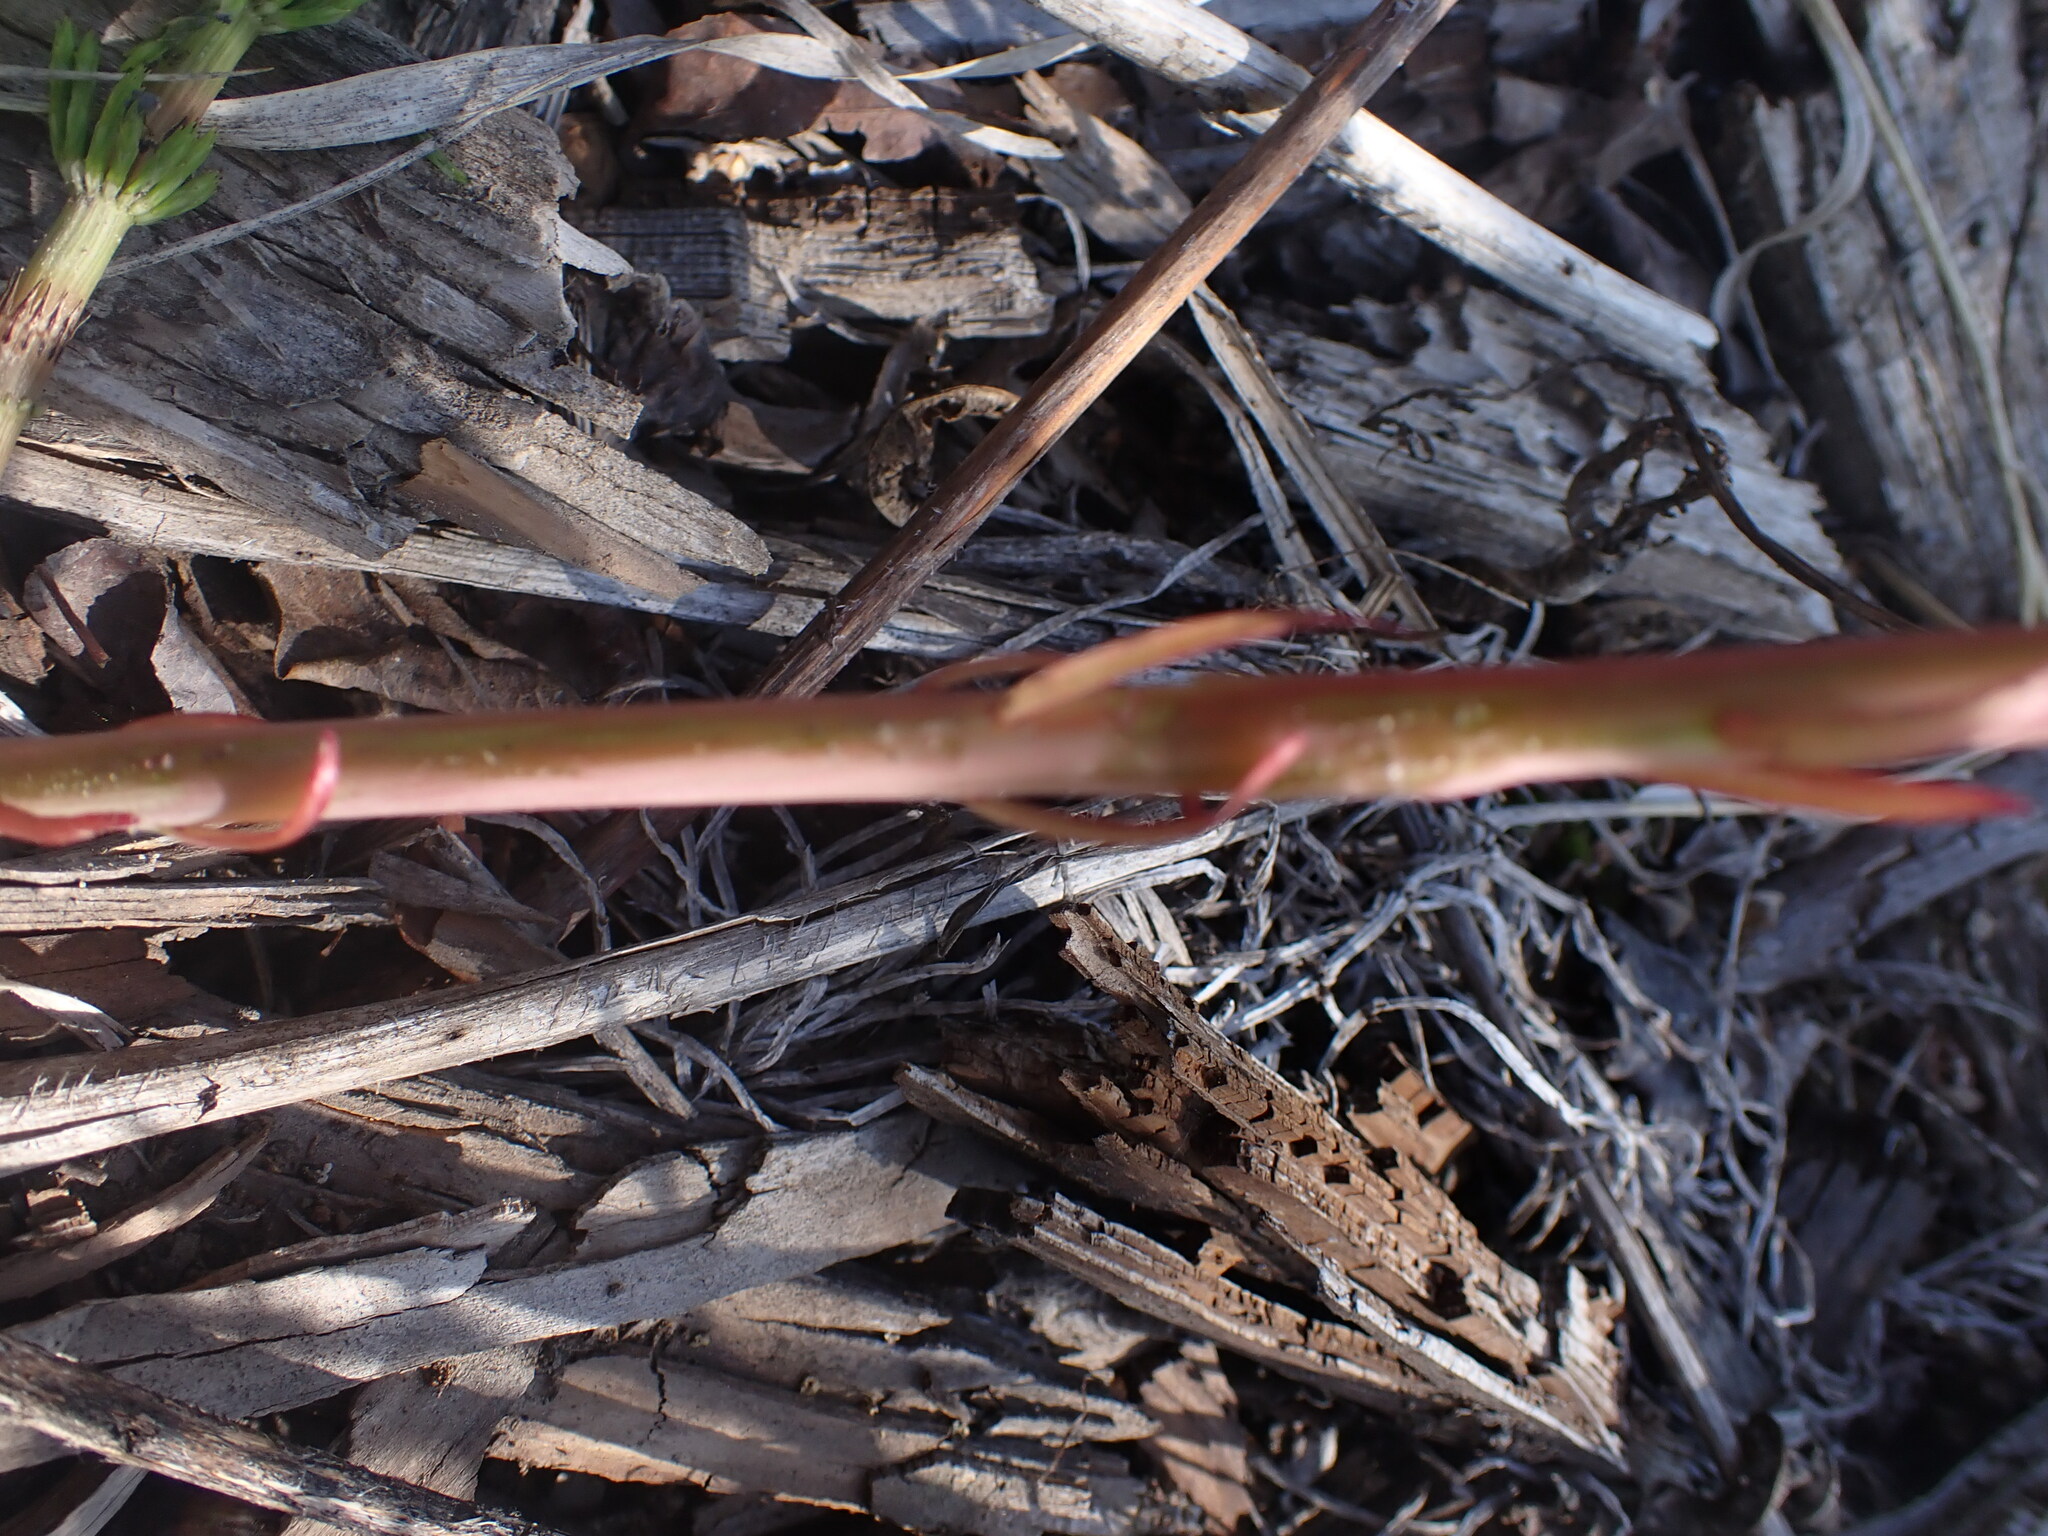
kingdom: Plantae
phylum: Tracheophyta
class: Magnoliopsida
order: Myrtales
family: Onagraceae
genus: Chamaenerion
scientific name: Chamaenerion angustifolium
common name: Fireweed
